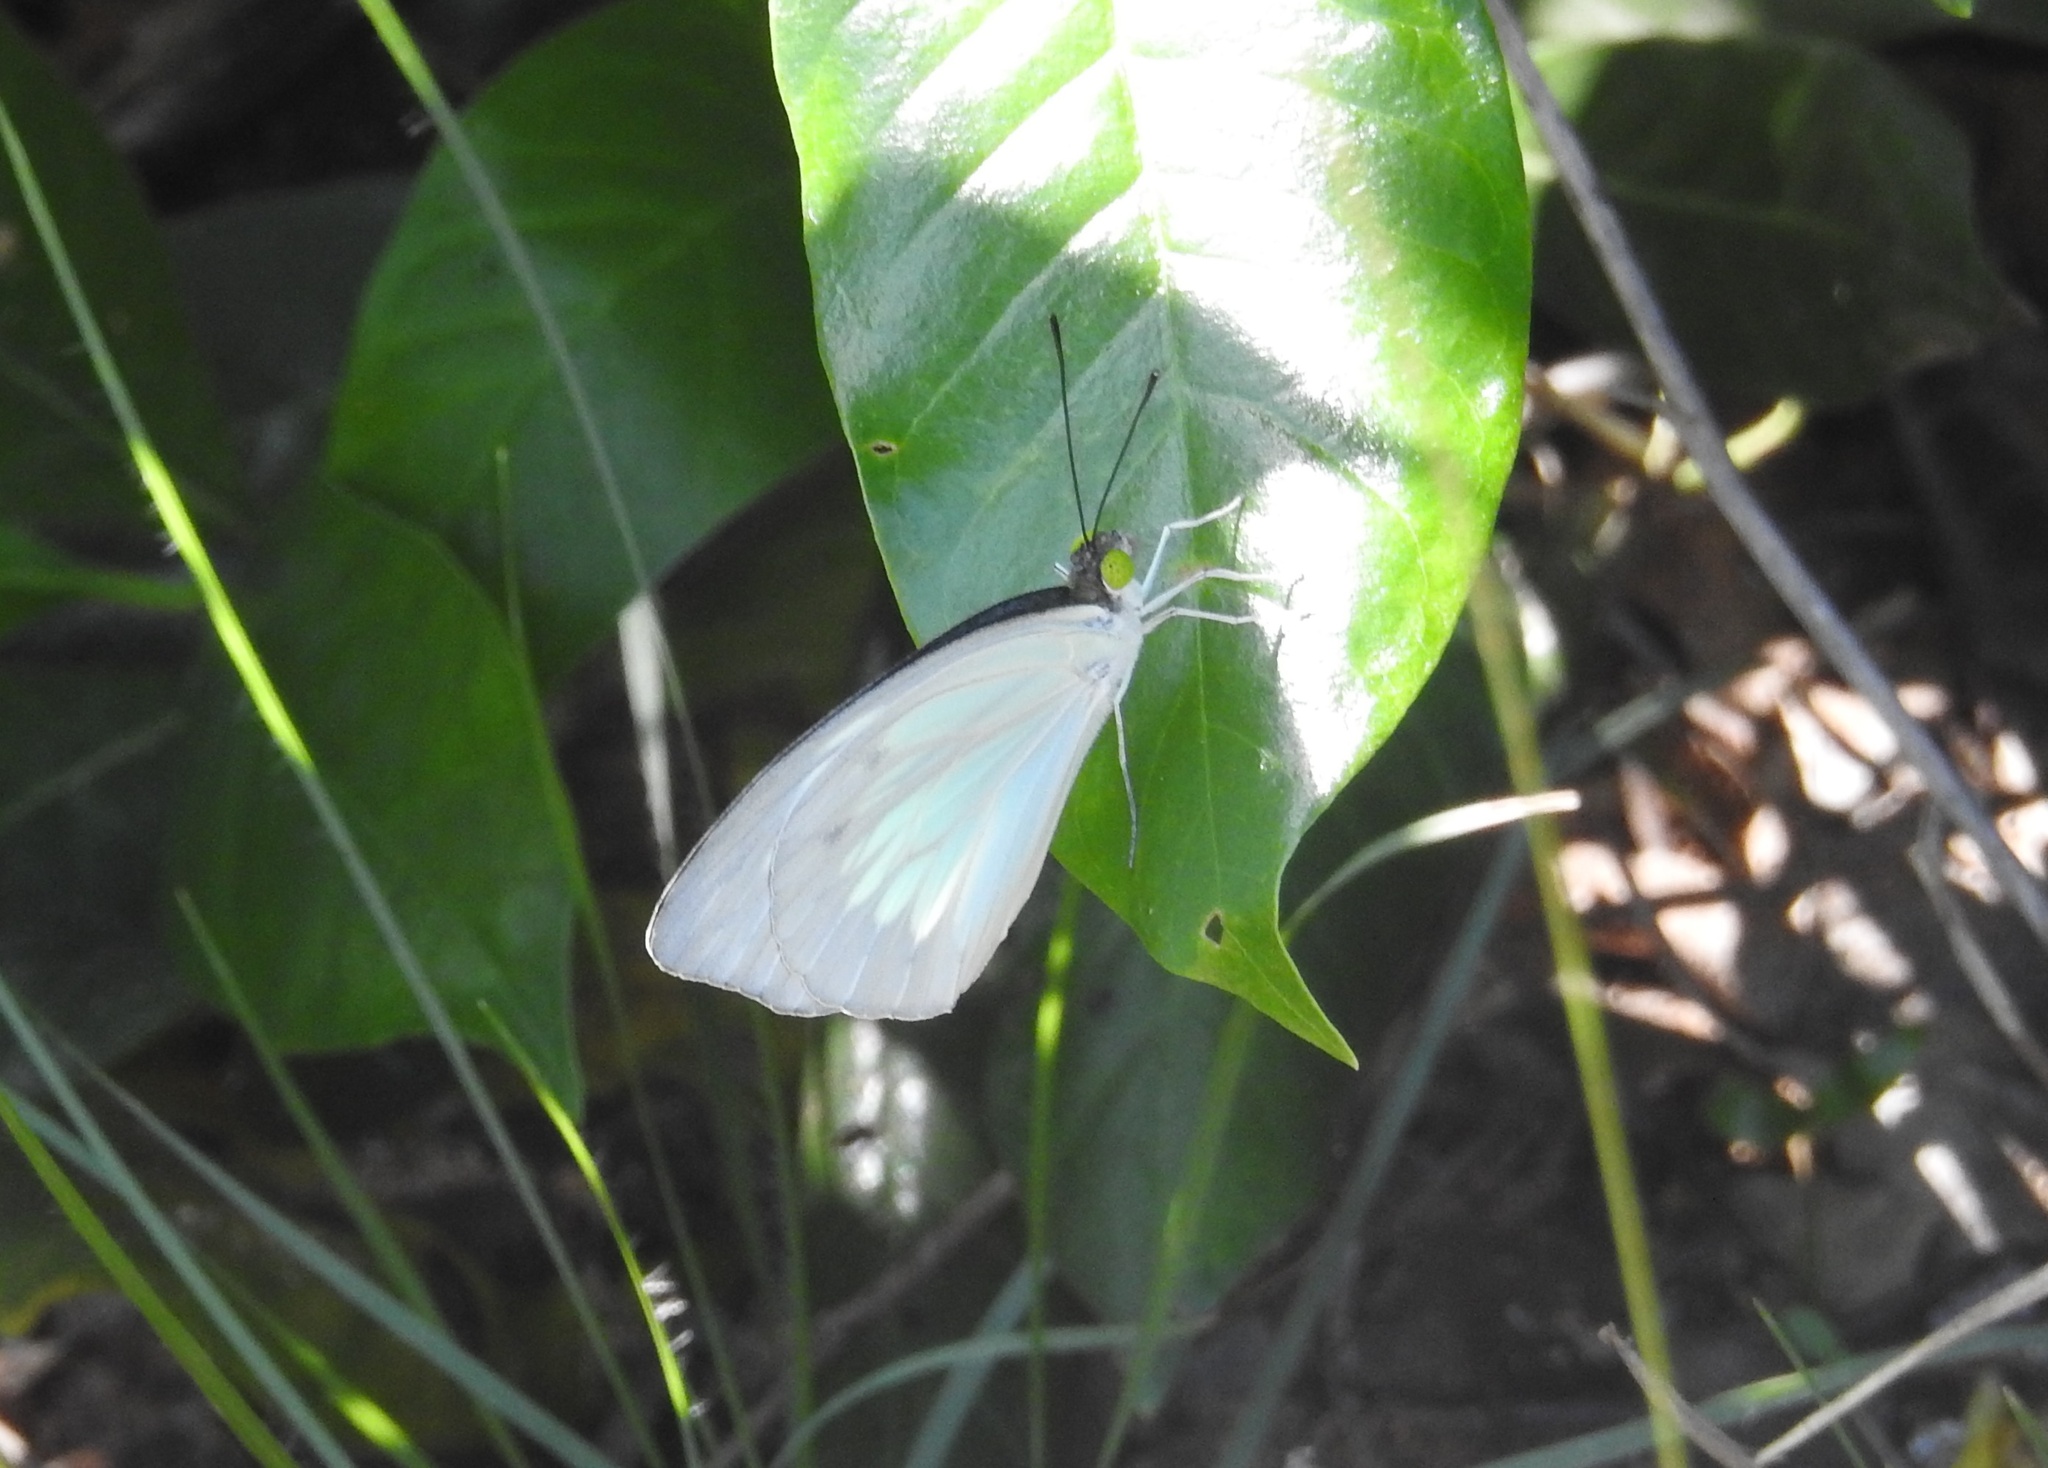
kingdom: Animalia
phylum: Arthropoda
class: Insecta
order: Lepidoptera
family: Pieridae
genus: Pareronia
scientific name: Pareronia ceylanica
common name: Dark wanderer
